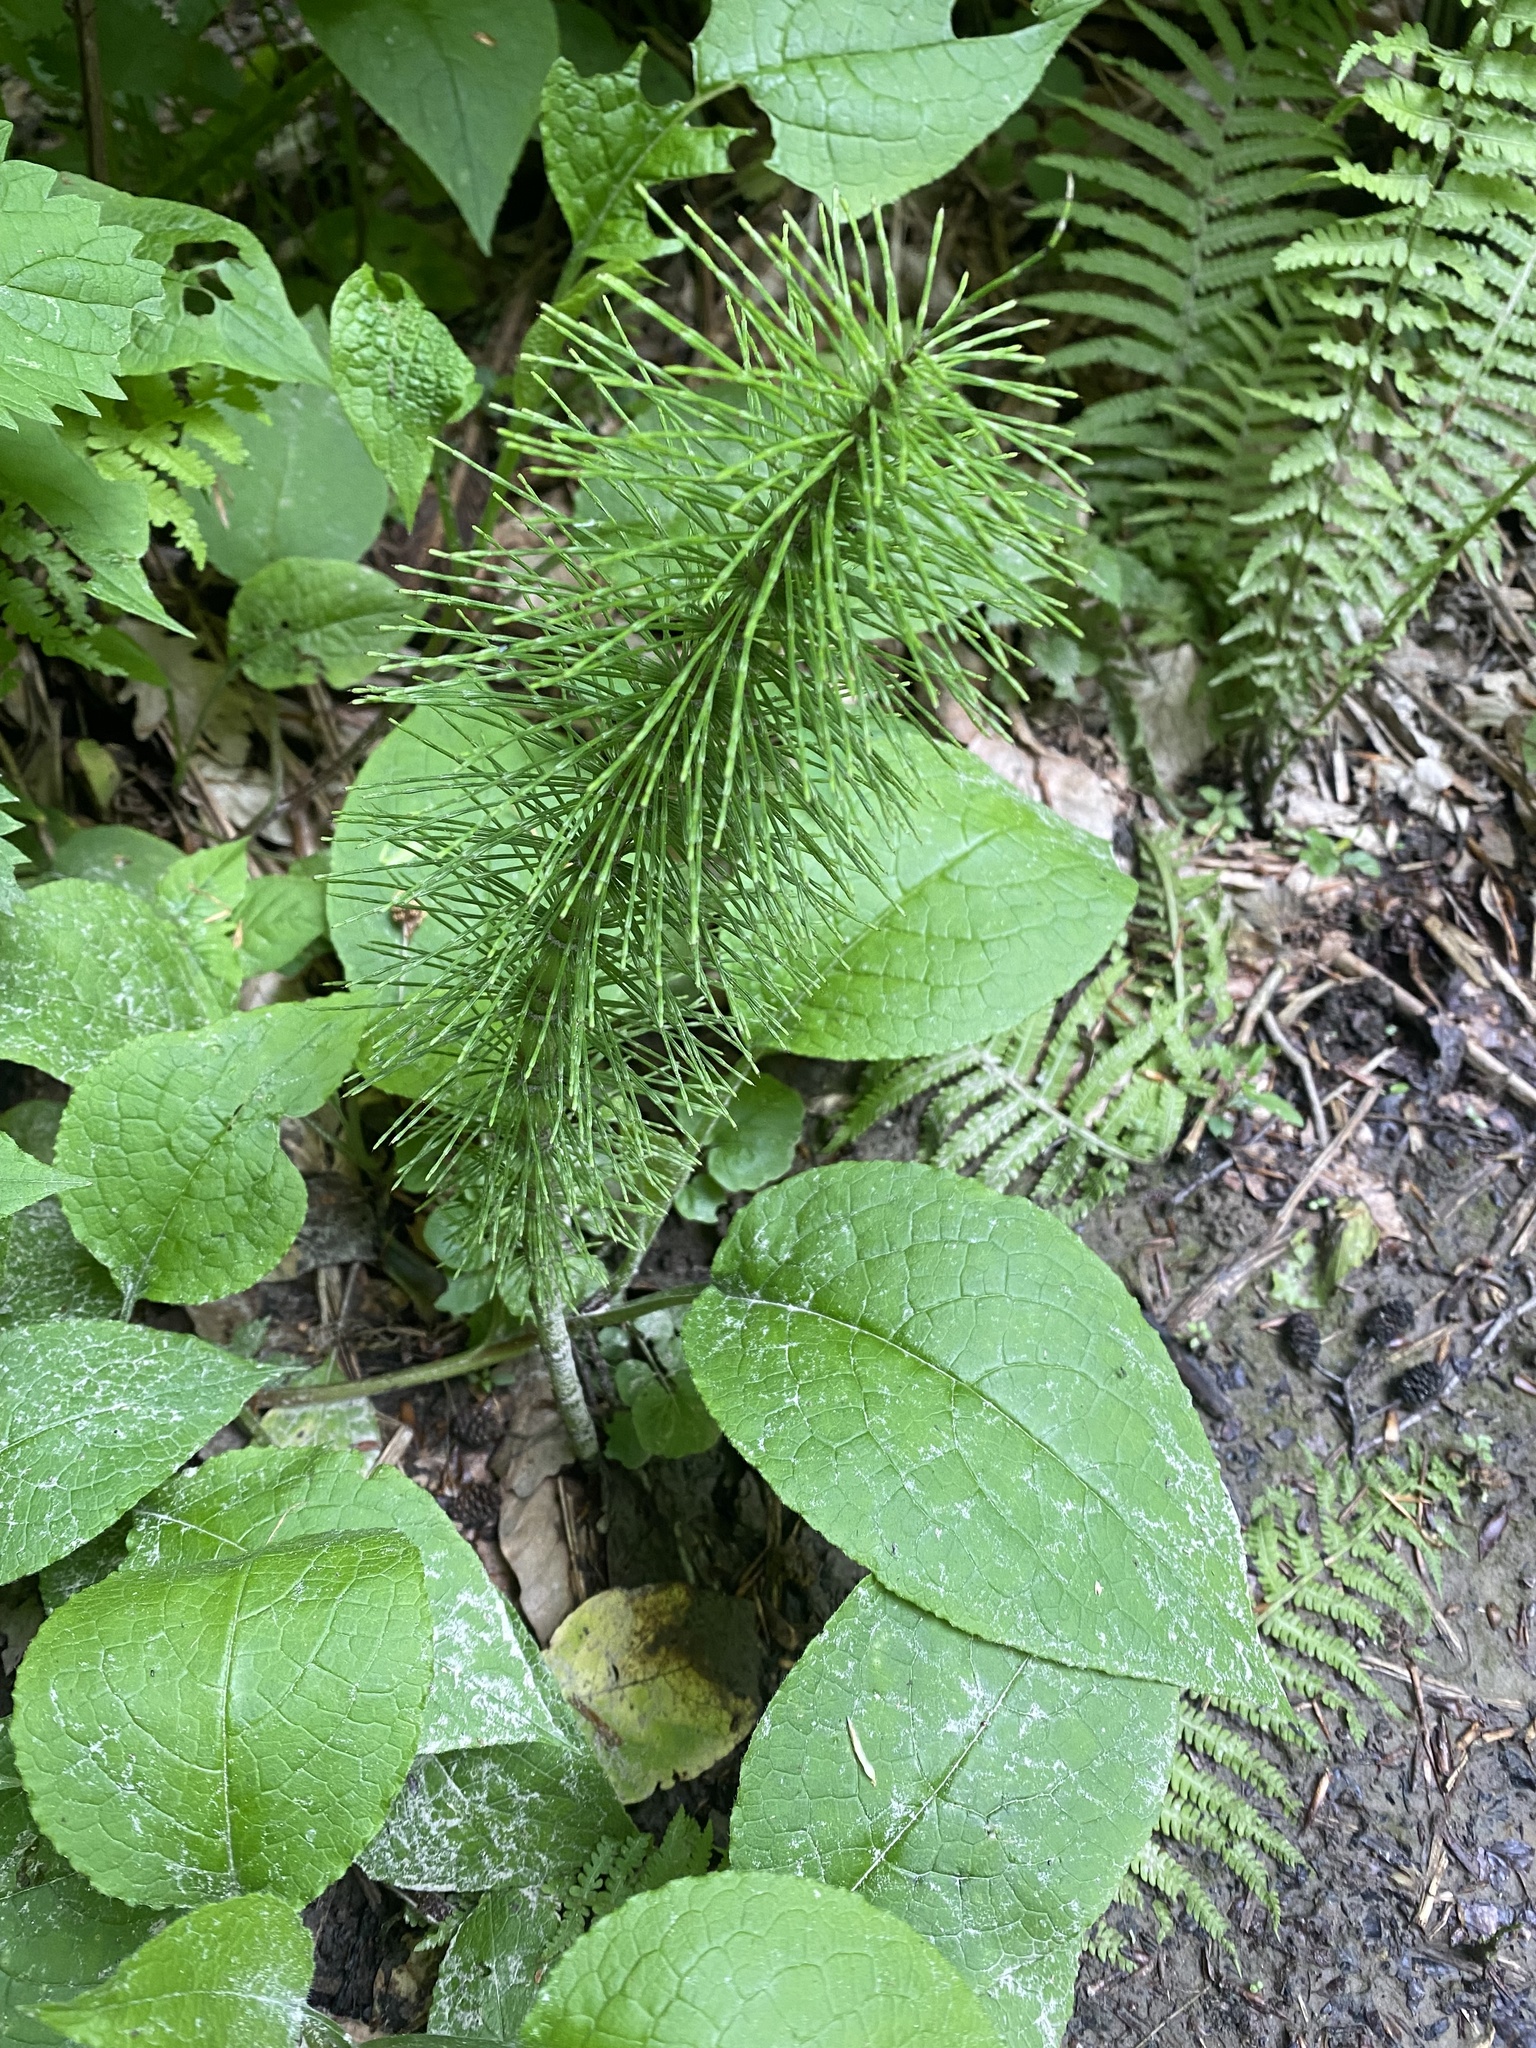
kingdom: Plantae
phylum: Tracheophyta
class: Polypodiopsida
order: Equisetales
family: Equisetaceae
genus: Equisetum
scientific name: Equisetum telmateia
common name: Great horsetail
